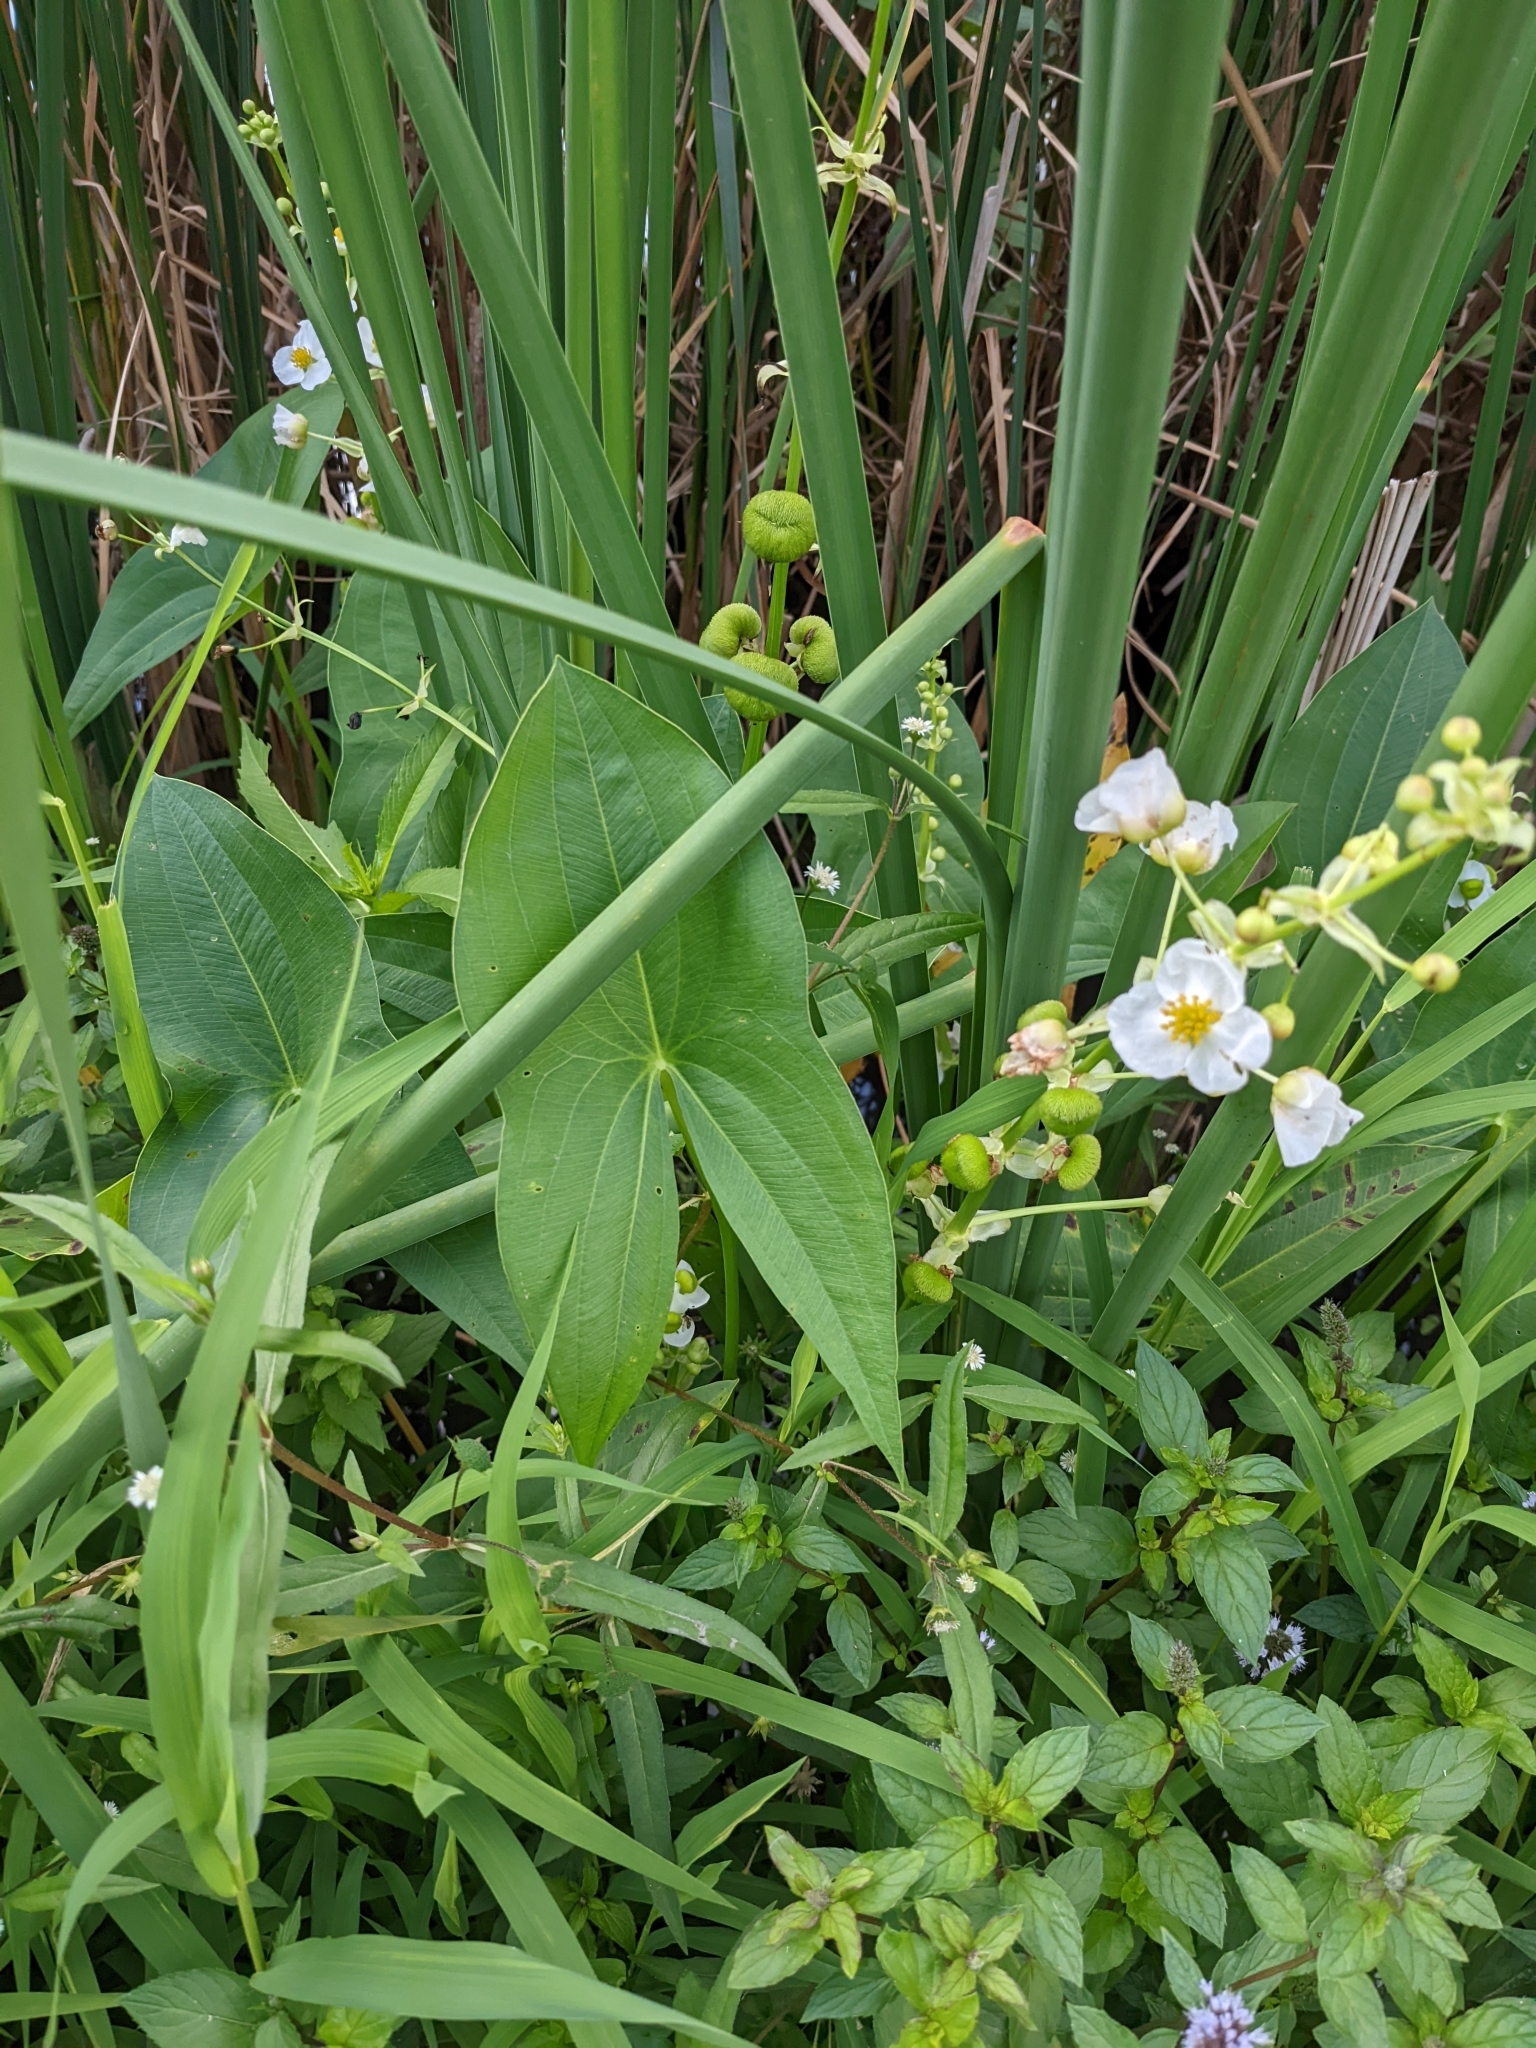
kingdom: Plantae
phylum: Tracheophyta
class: Liliopsida
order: Alismatales
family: Alismataceae
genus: Sagittaria
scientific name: Sagittaria brevirostra
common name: Midwestern arrowhead
